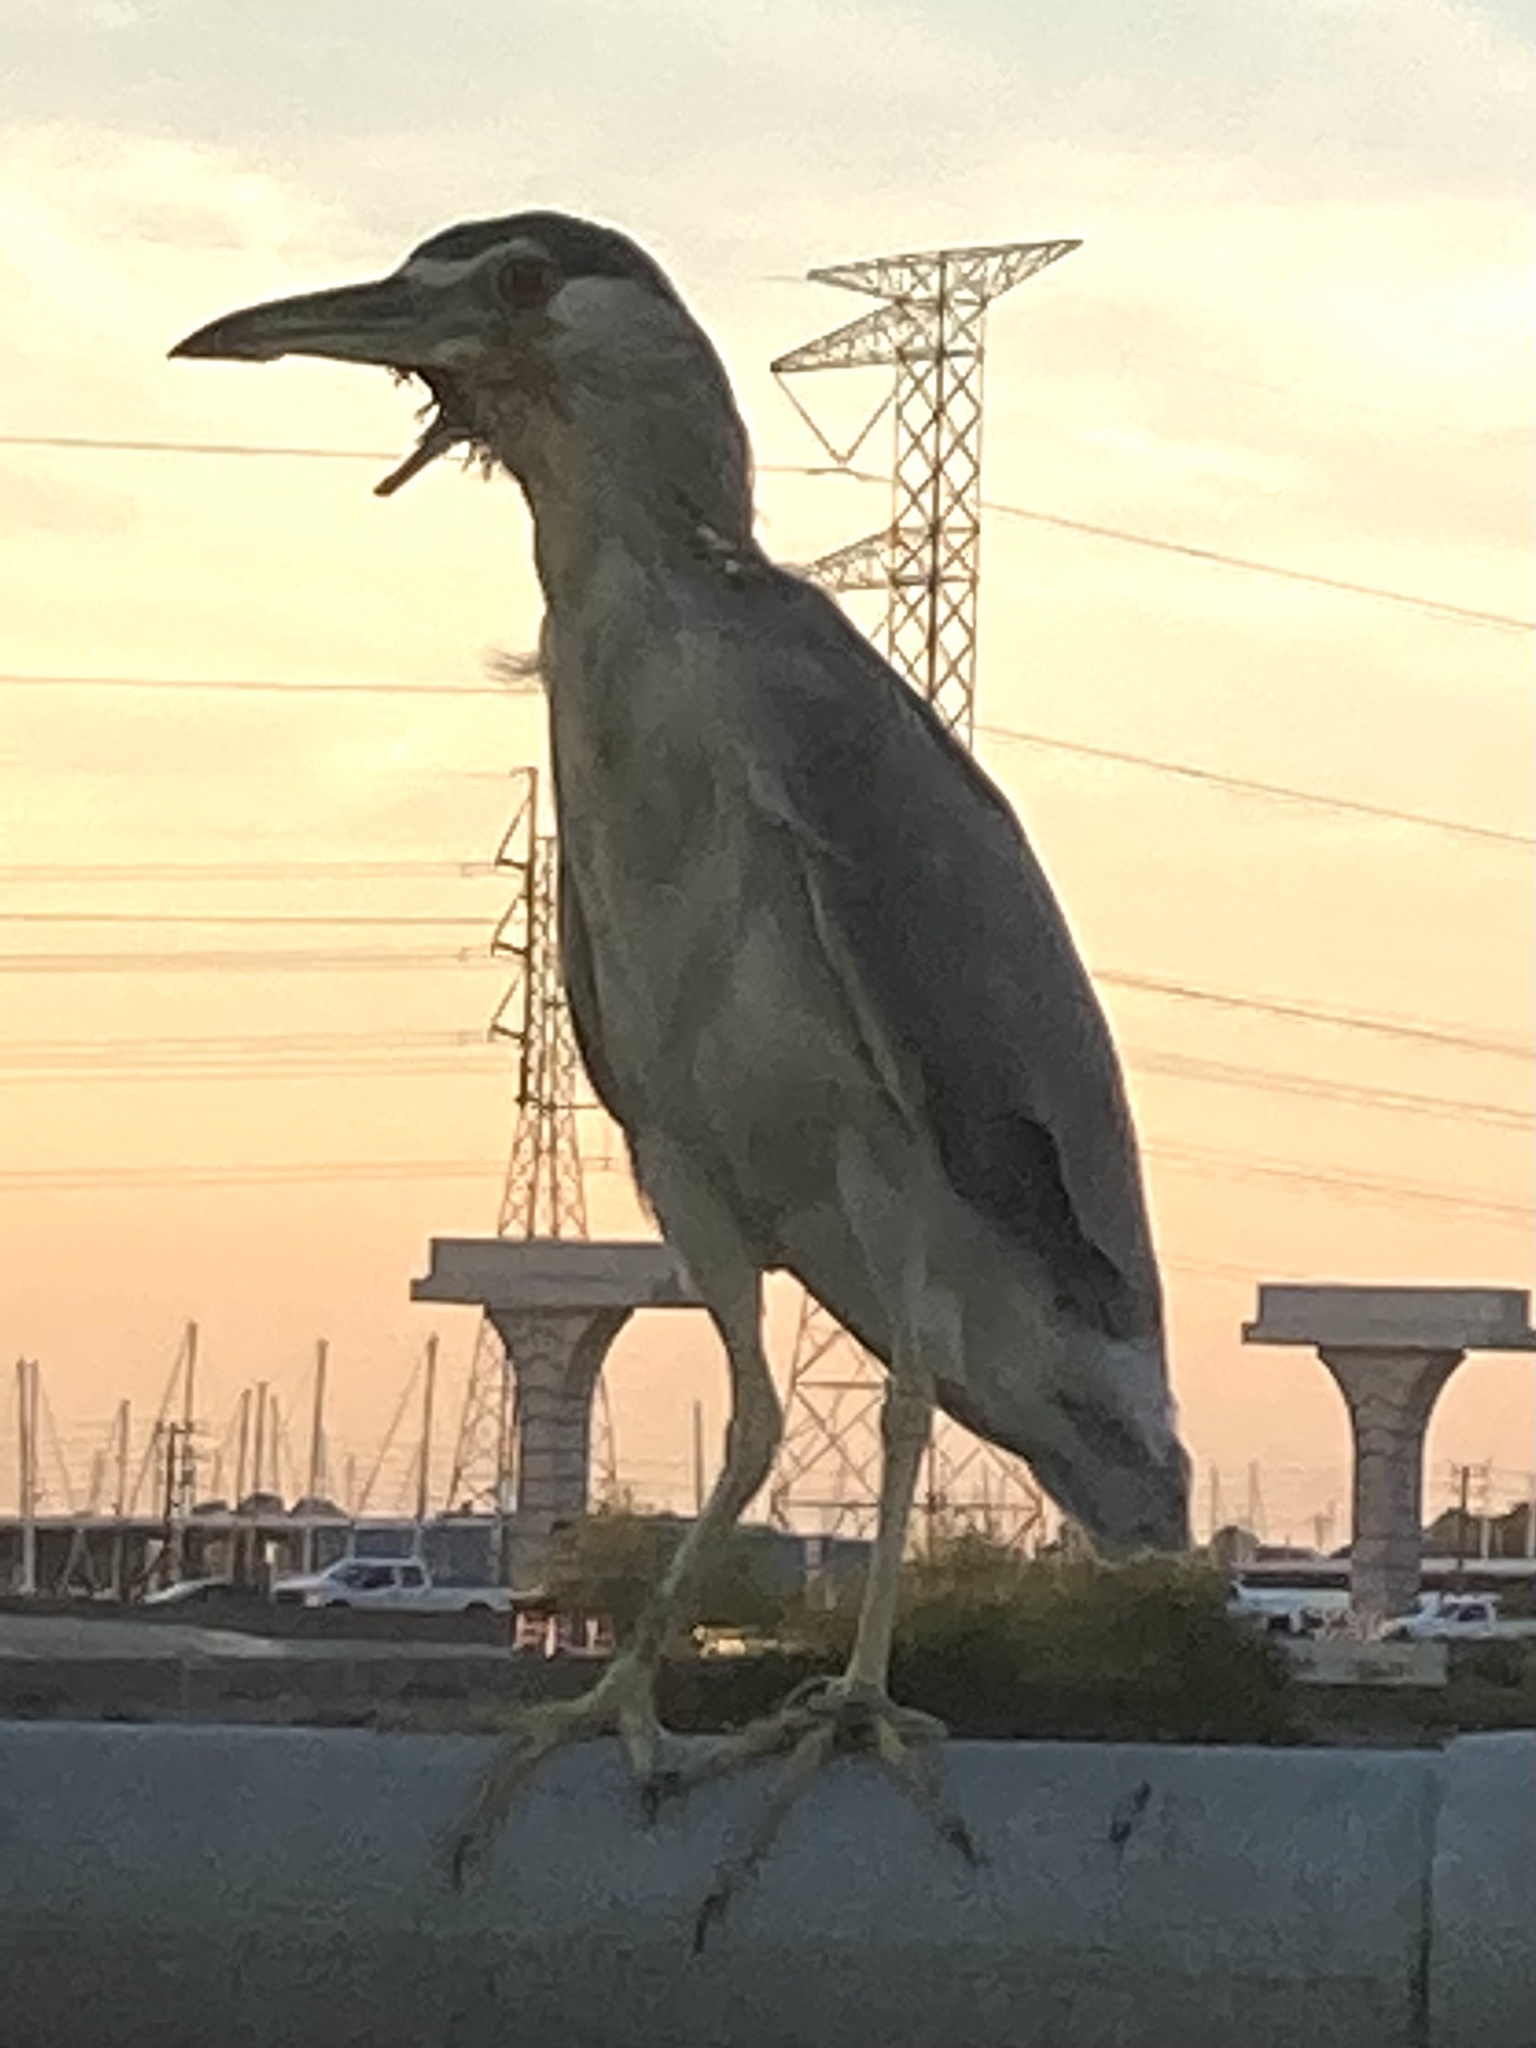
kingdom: Animalia
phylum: Chordata
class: Aves
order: Pelecaniformes
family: Ardeidae
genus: Nycticorax
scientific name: Nycticorax nycticorax
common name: Black-crowned night heron
